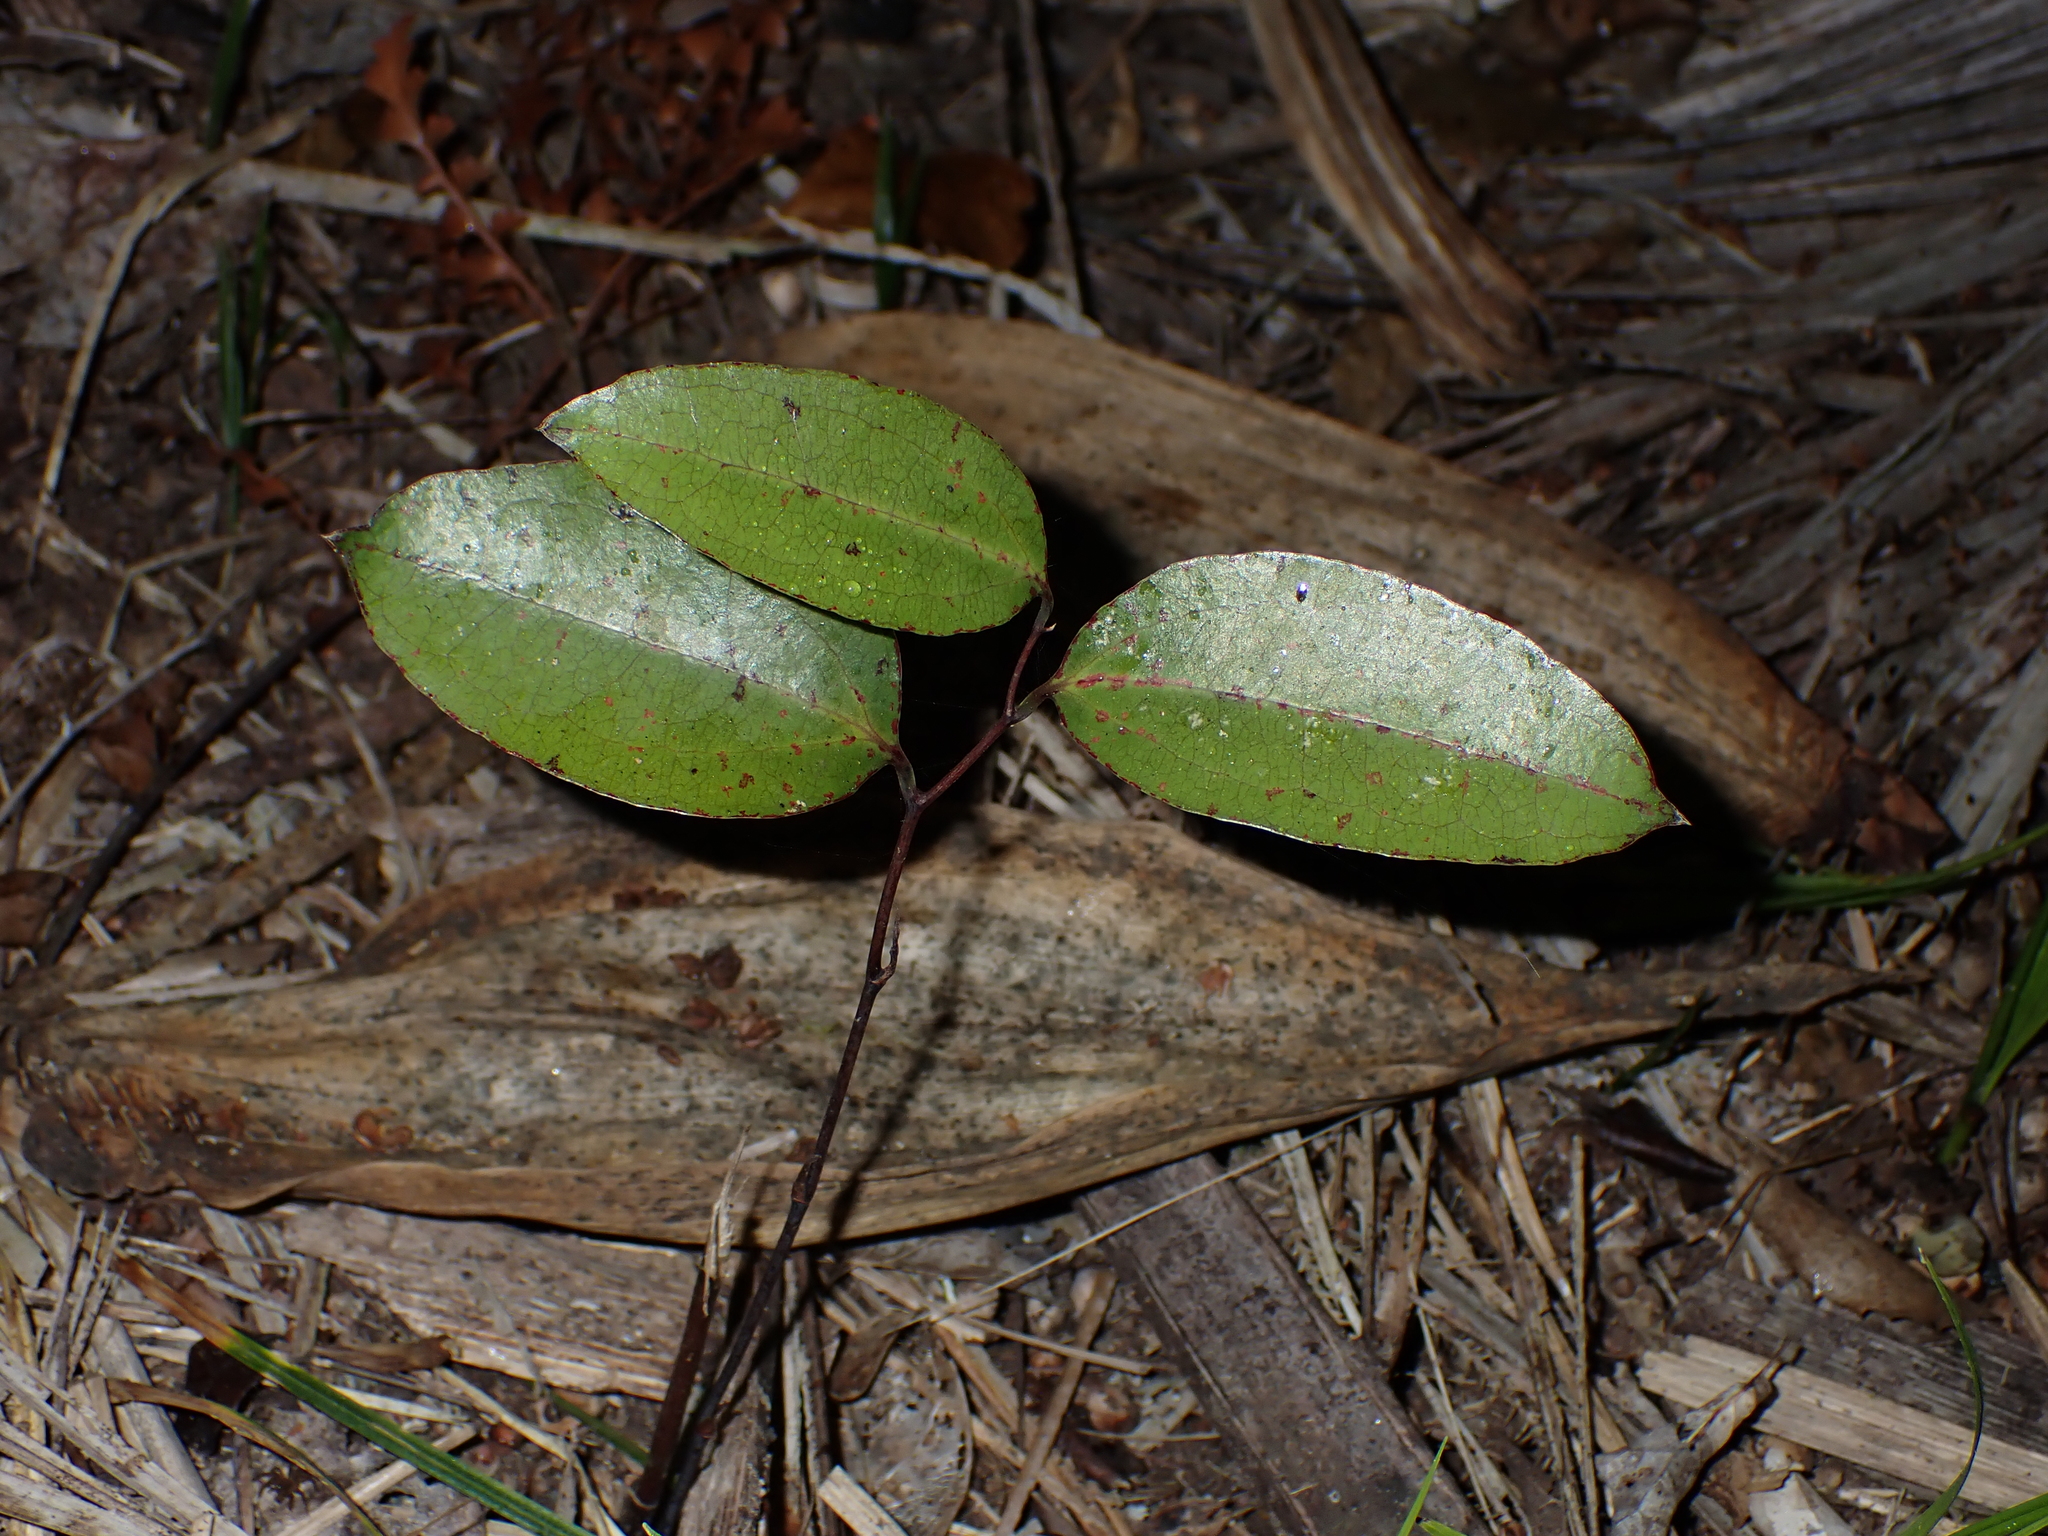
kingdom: Plantae
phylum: Tracheophyta
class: Liliopsida
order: Liliales
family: Ripogonaceae
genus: Ripogonum
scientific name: Ripogonum scandens
